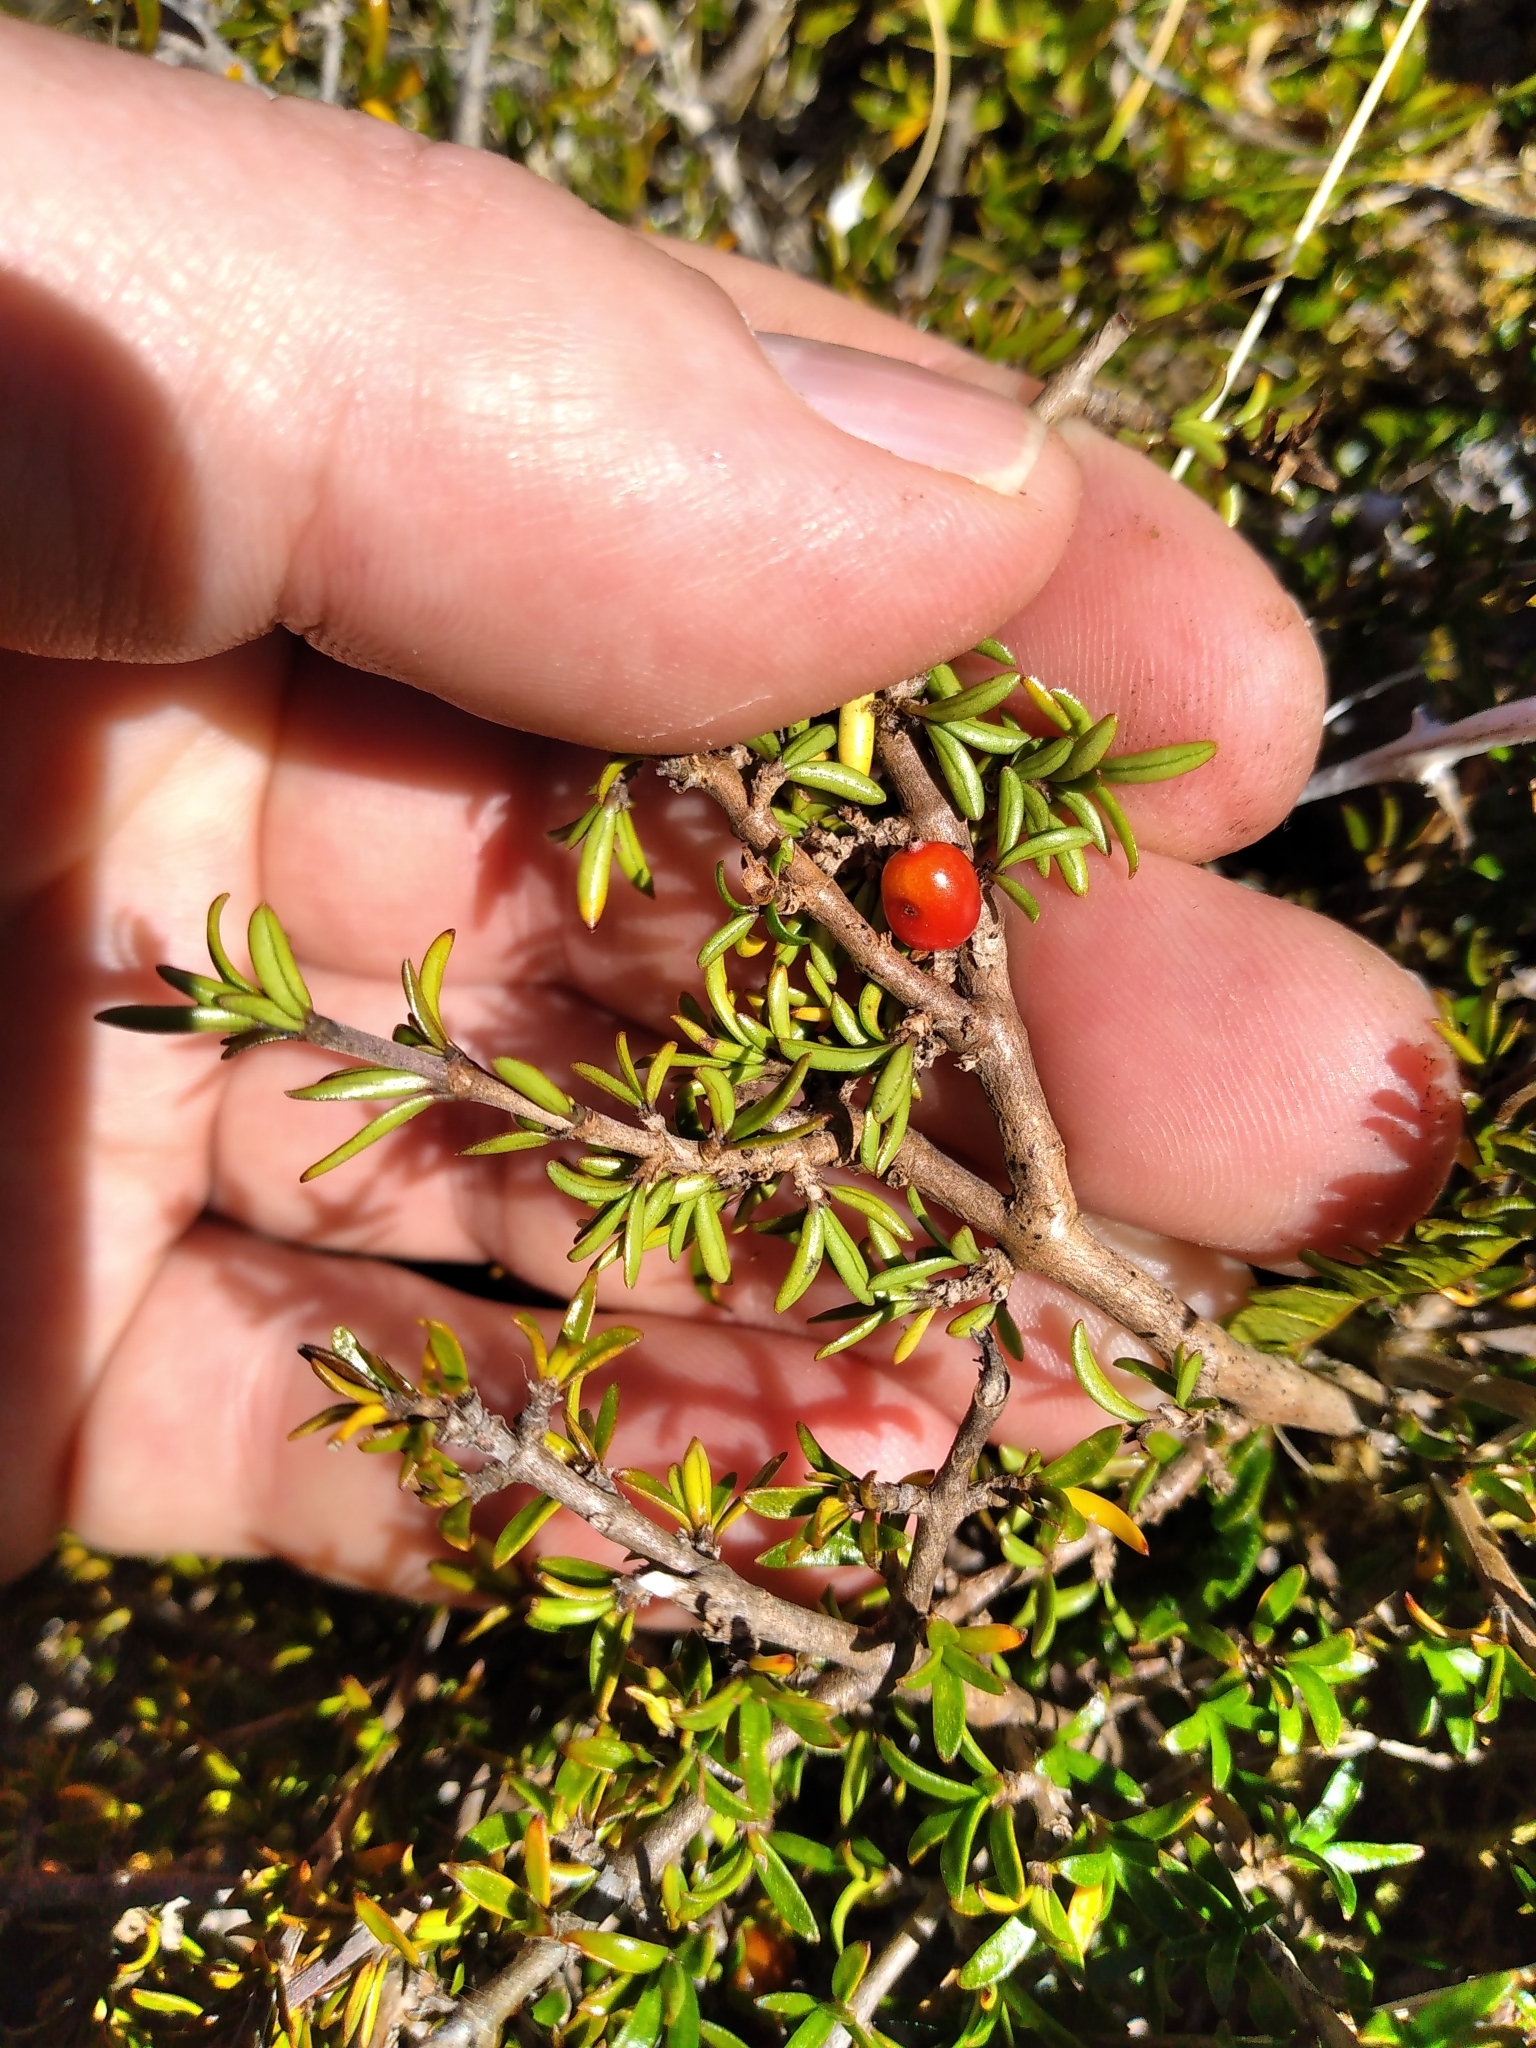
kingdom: Plantae
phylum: Tracheophyta
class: Magnoliopsida
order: Gentianales
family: Rubiaceae
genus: Coprosma
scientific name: Coprosma cheesemanii
